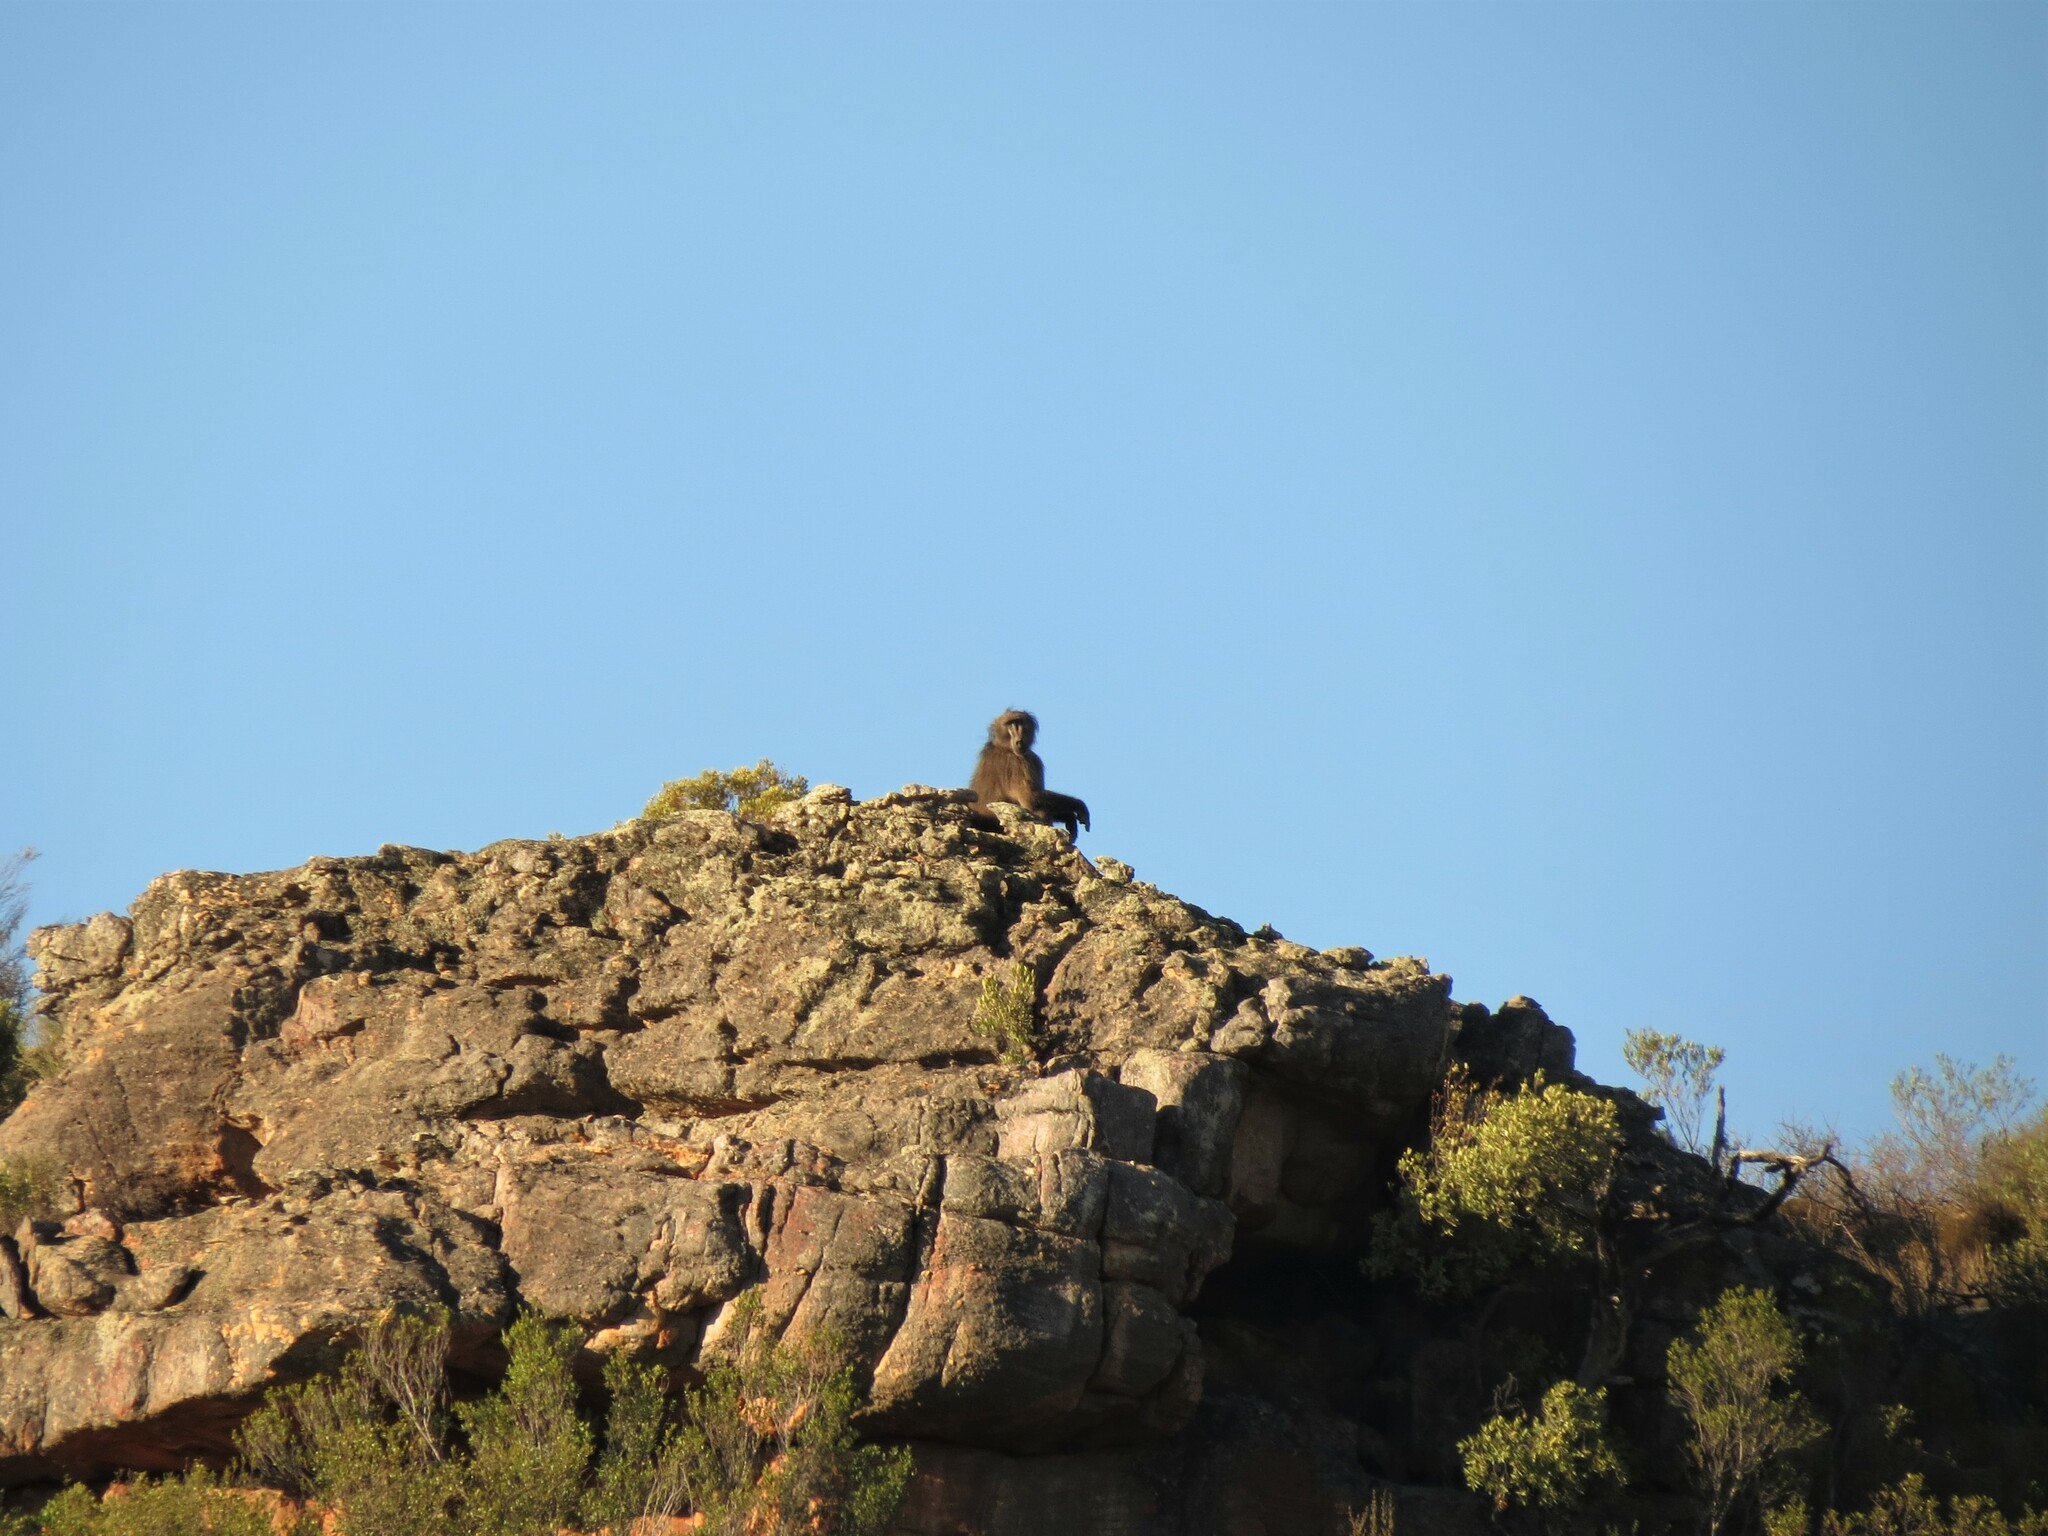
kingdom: Animalia
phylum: Chordata
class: Mammalia
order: Primates
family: Cercopithecidae
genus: Papio
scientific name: Papio ursinus
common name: Chacma baboon
